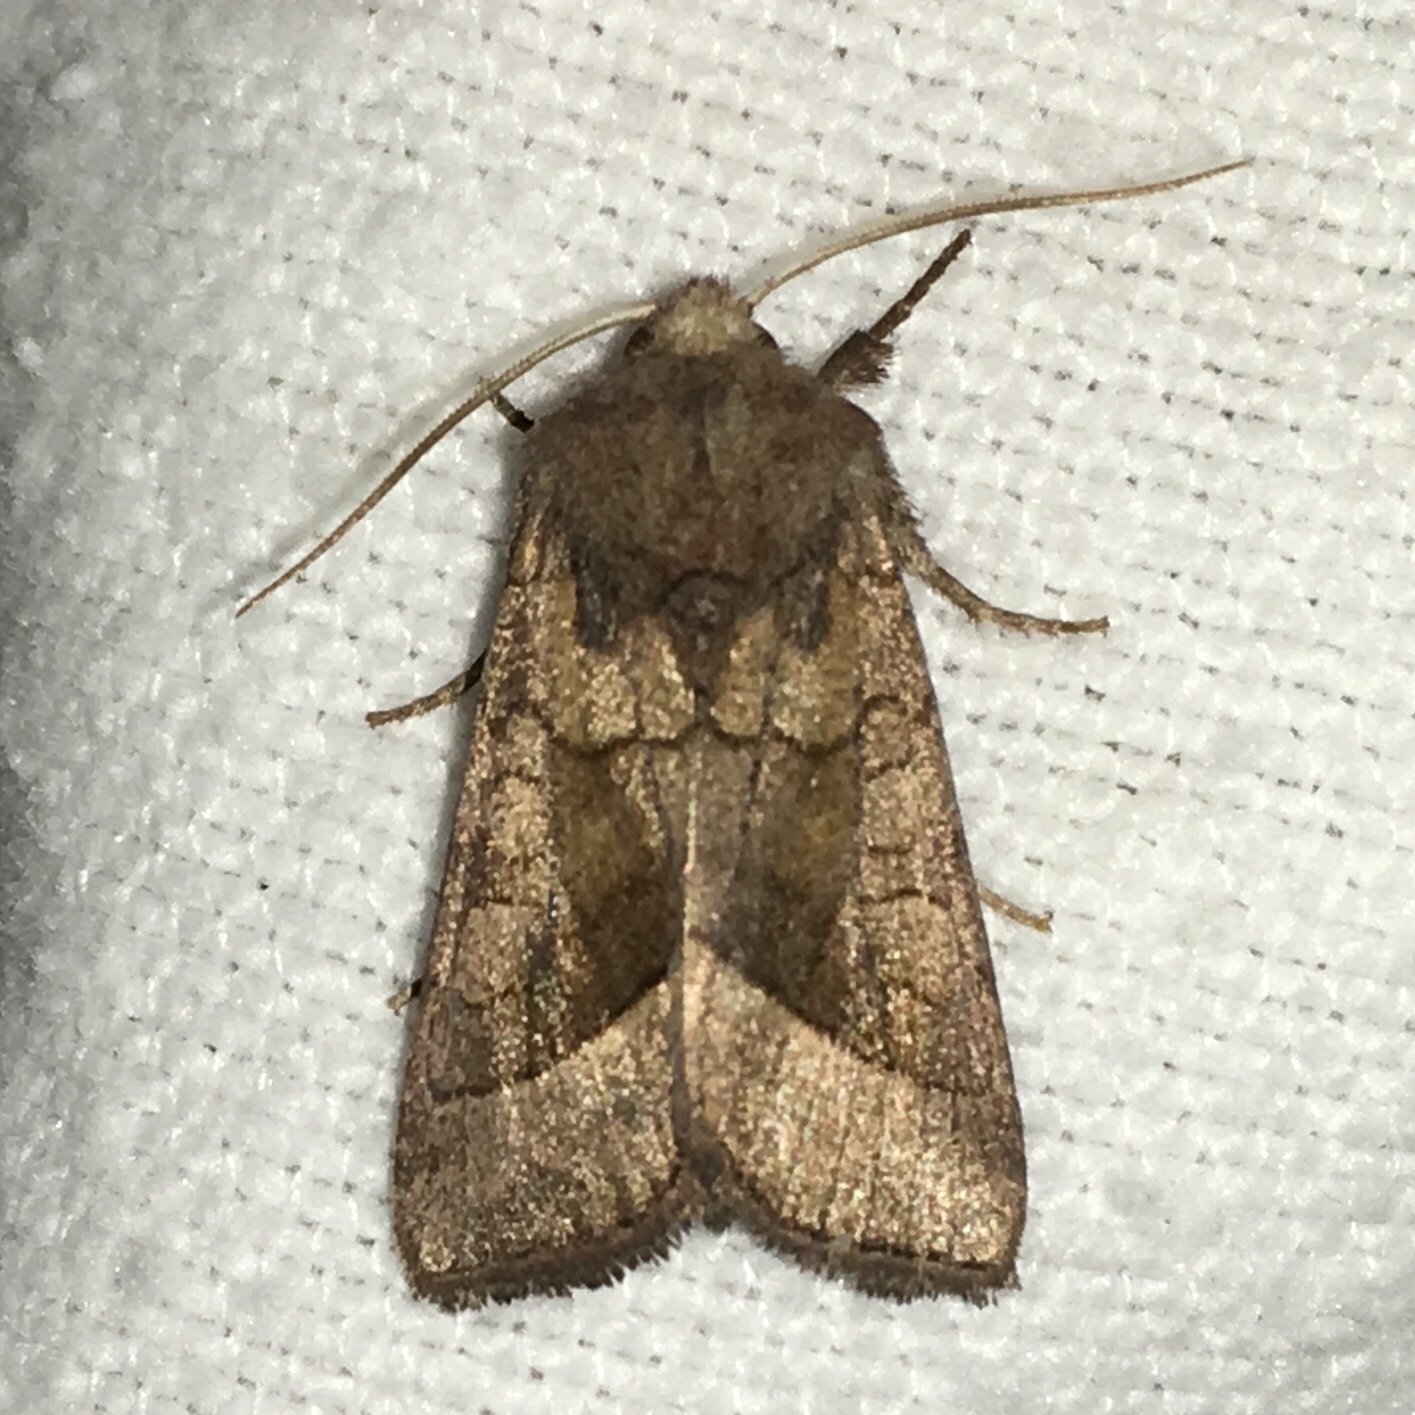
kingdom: Animalia
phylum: Arthropoda
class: Insecta
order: Lepidoptera
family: Noctuidae
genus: Hydraecia
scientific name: Hydraecia micacea
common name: Rosy rustic
